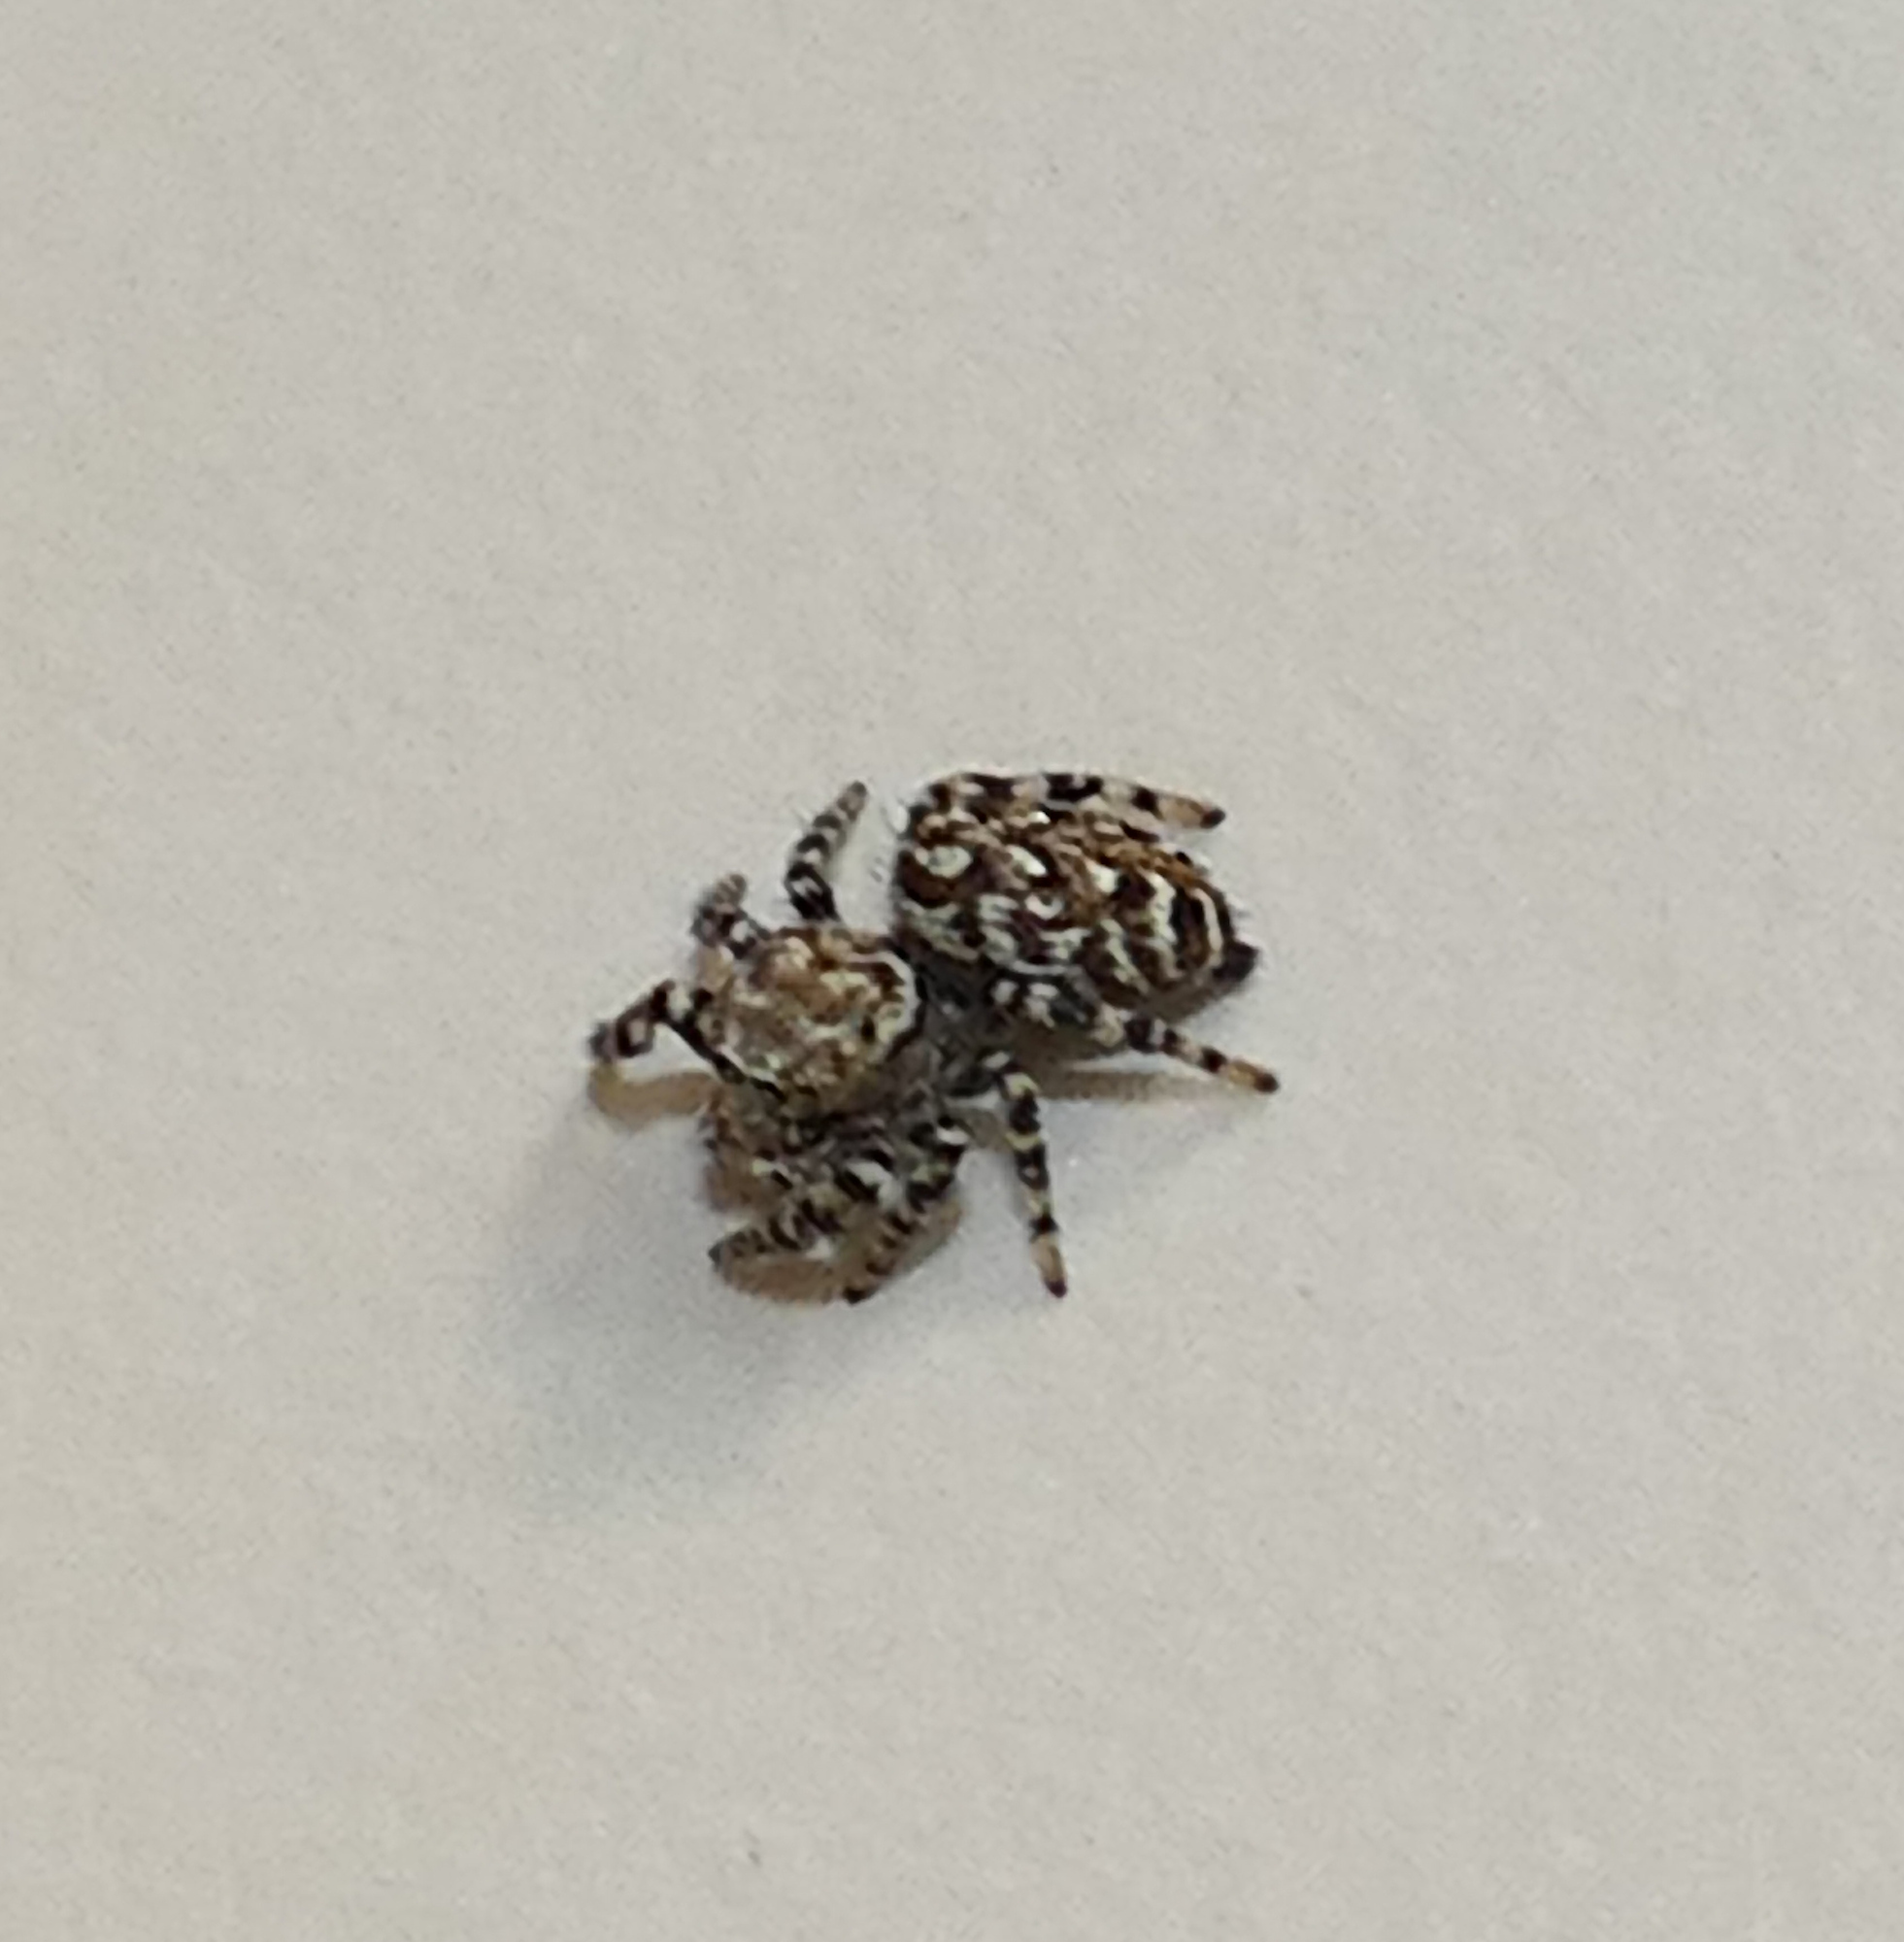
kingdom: Animalia
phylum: Arthropoda
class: Arachnida
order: Araneae
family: Salticidae
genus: Pelegrina
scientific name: Pelegrina galathea
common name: Jumping spiders
